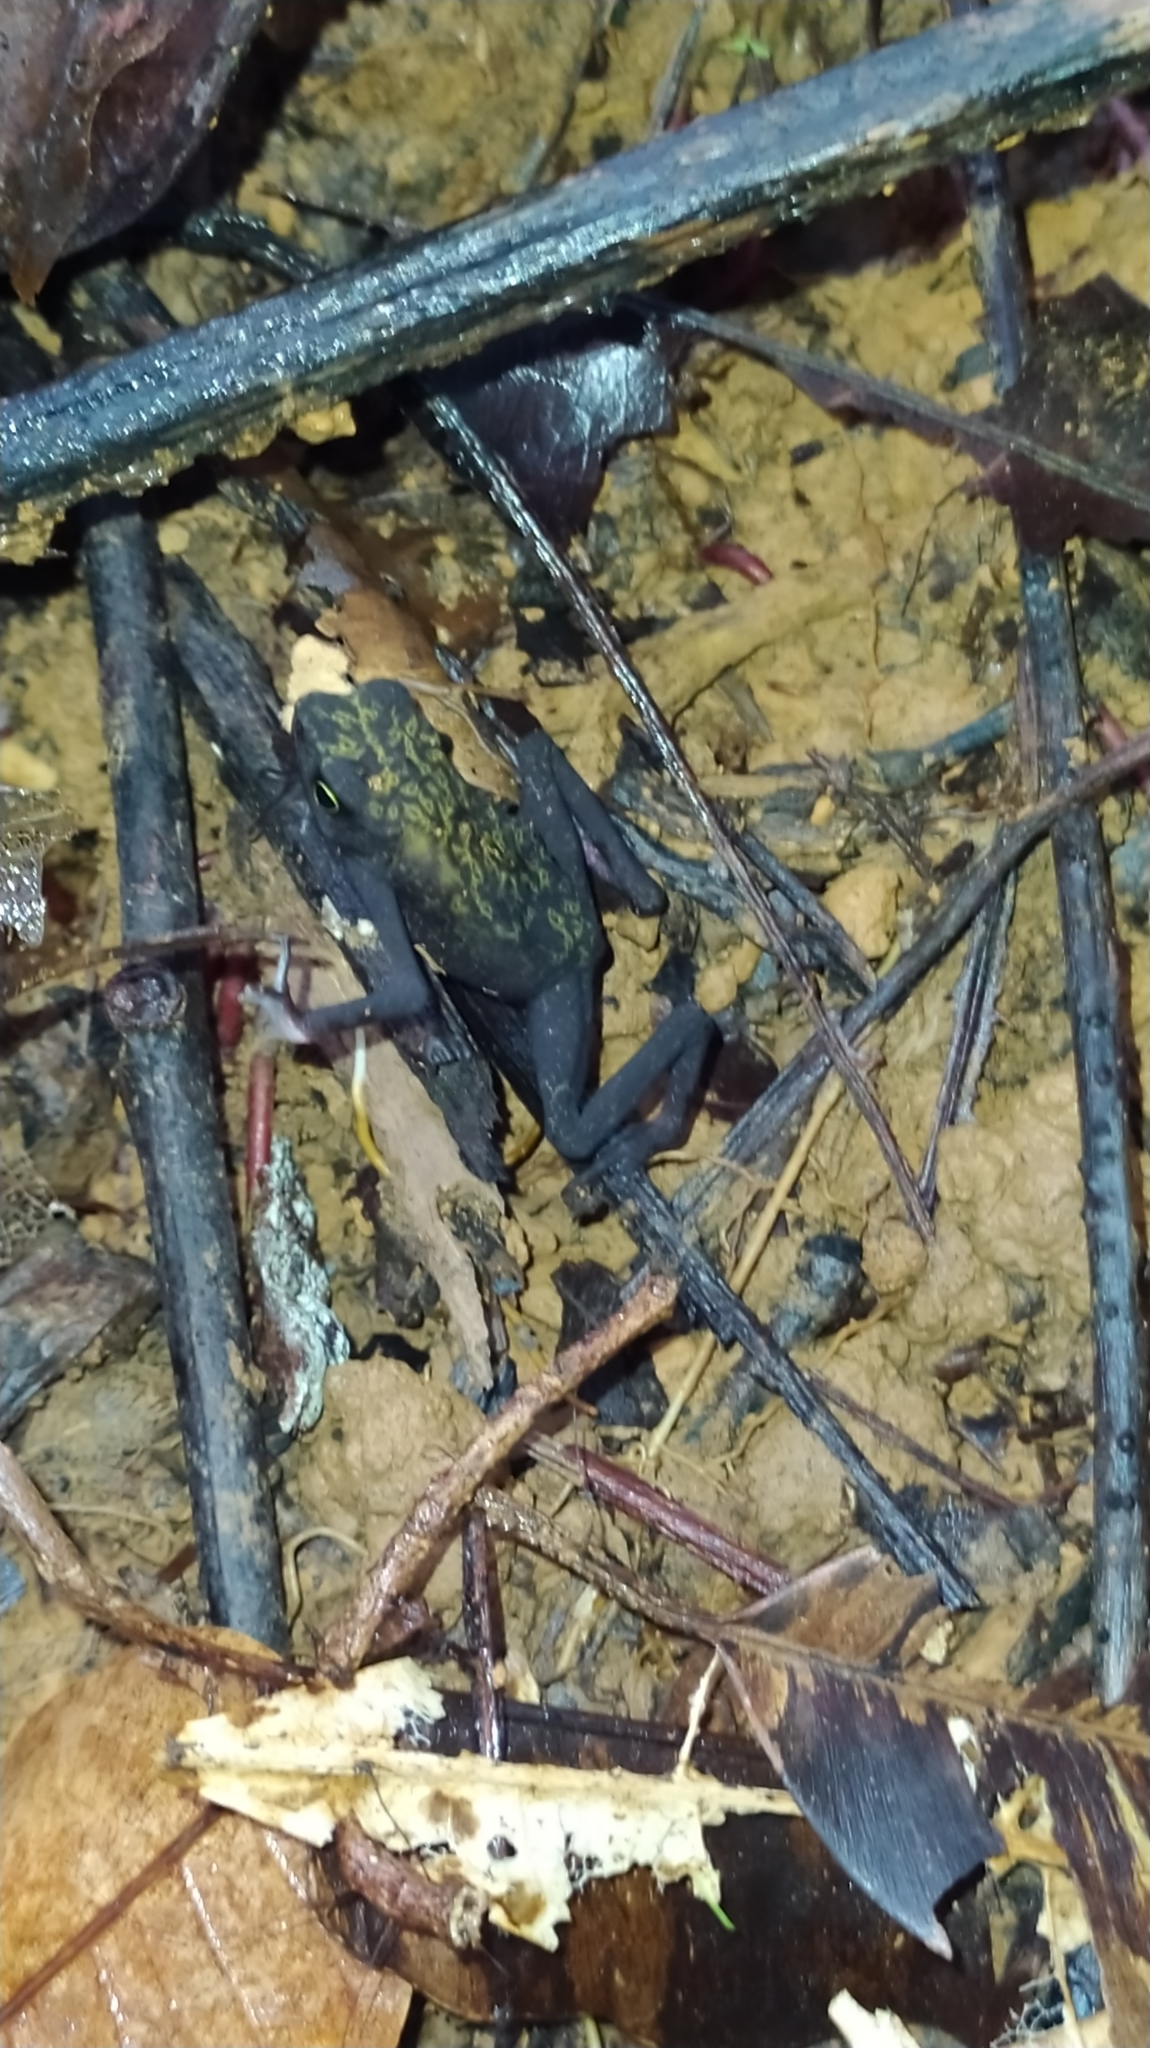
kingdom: Animalia
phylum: Chordata
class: Amphibia
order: Anura
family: Bufonidae
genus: Atelopus
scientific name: Atelopus flavescens
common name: Cayenne stubfoot toad
